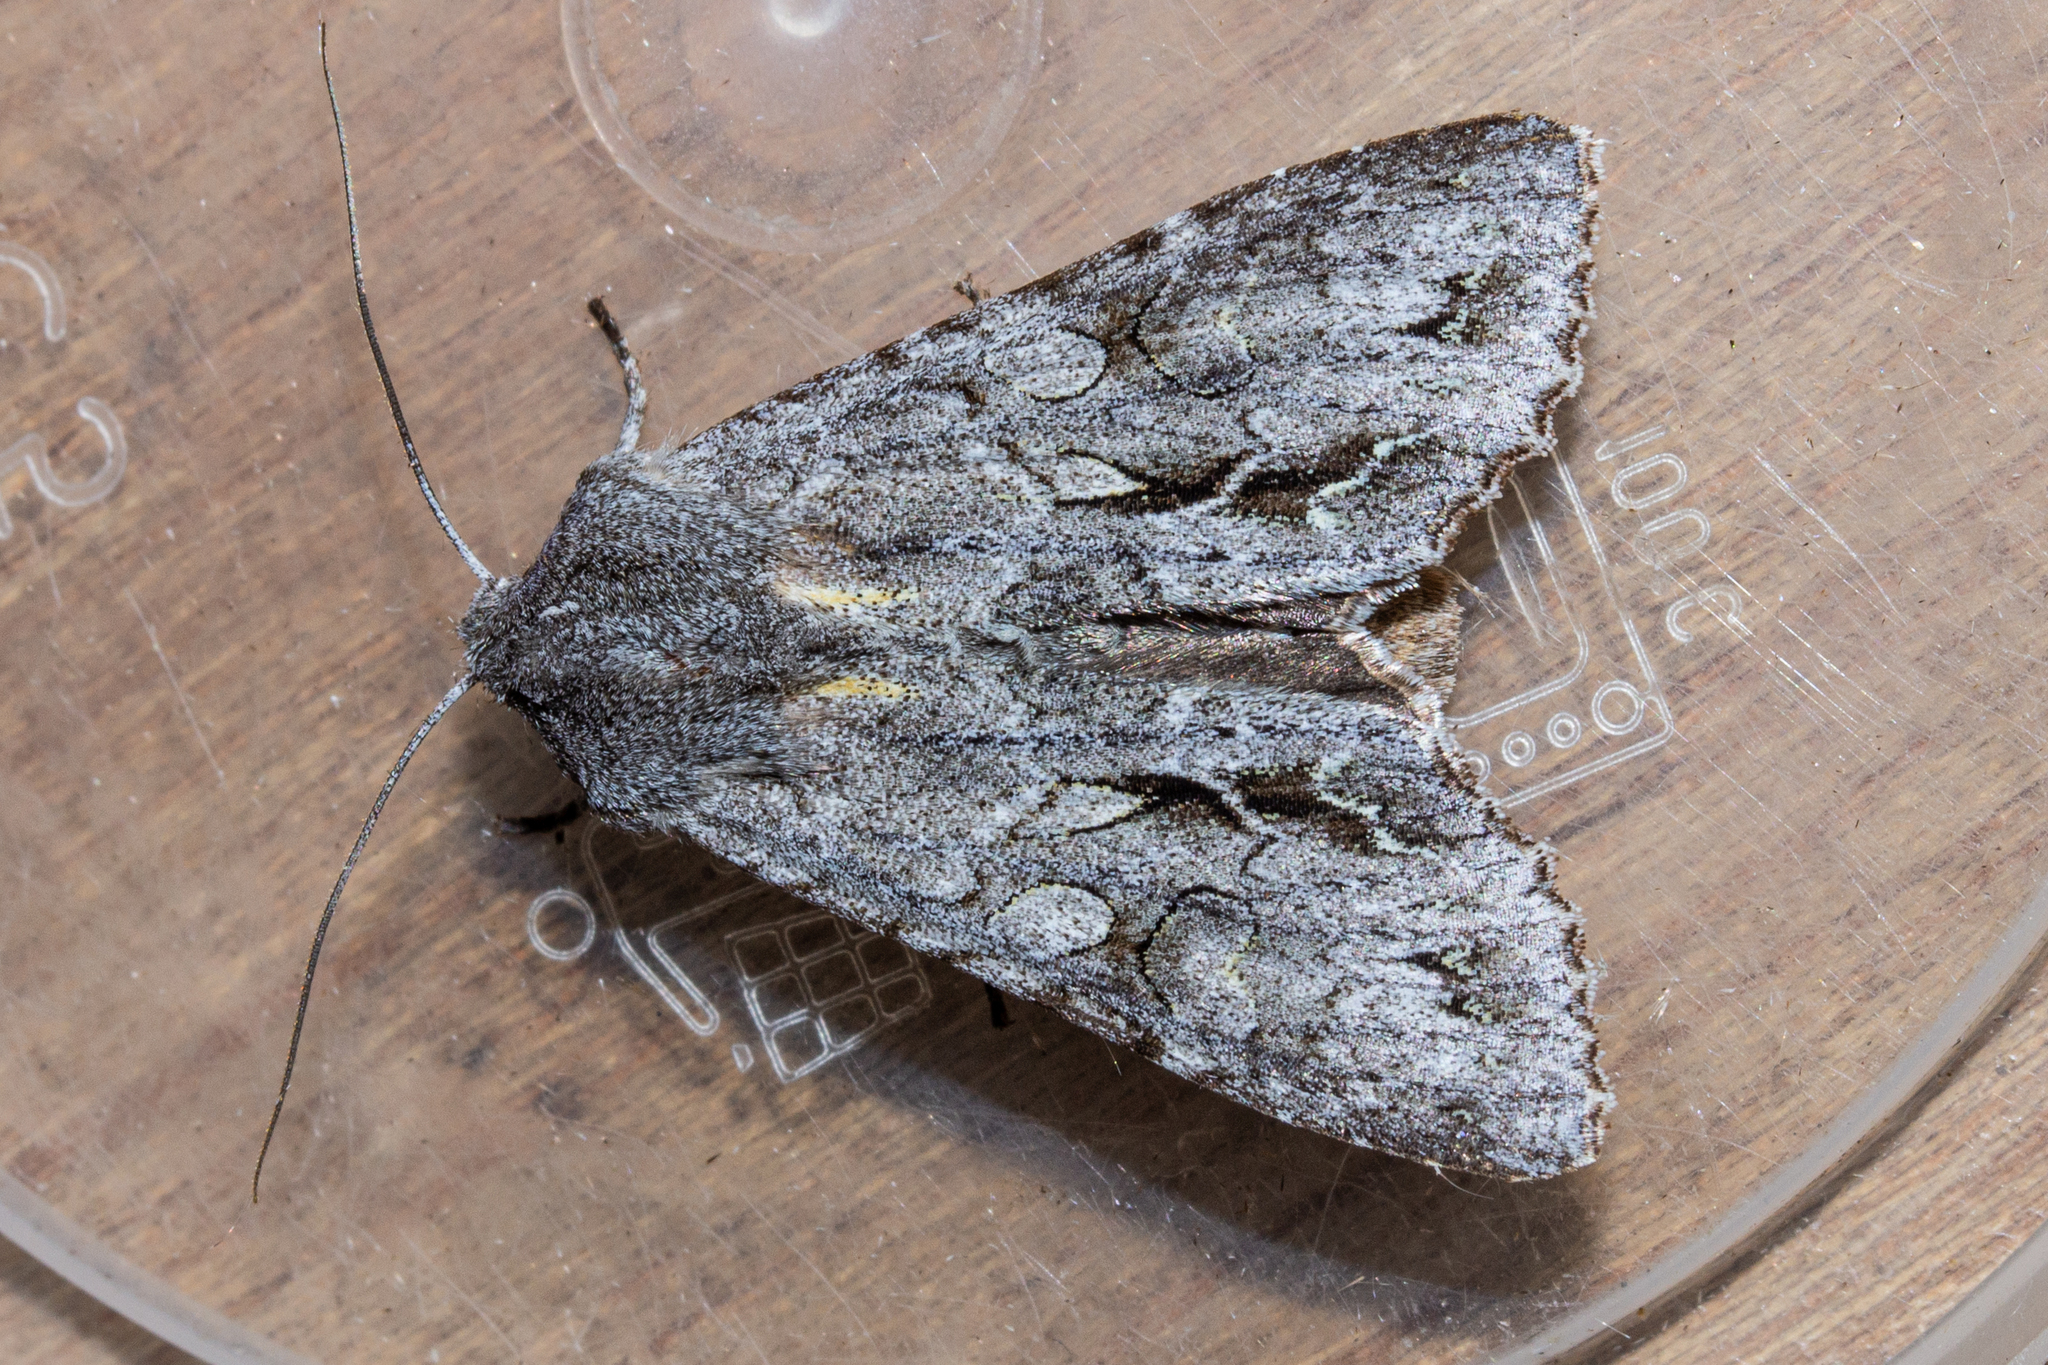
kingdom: Animalia
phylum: Arthropoda
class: Insecta
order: Lepidoptera
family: Noctuidae
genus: Ichneutica
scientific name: Ichneutica
